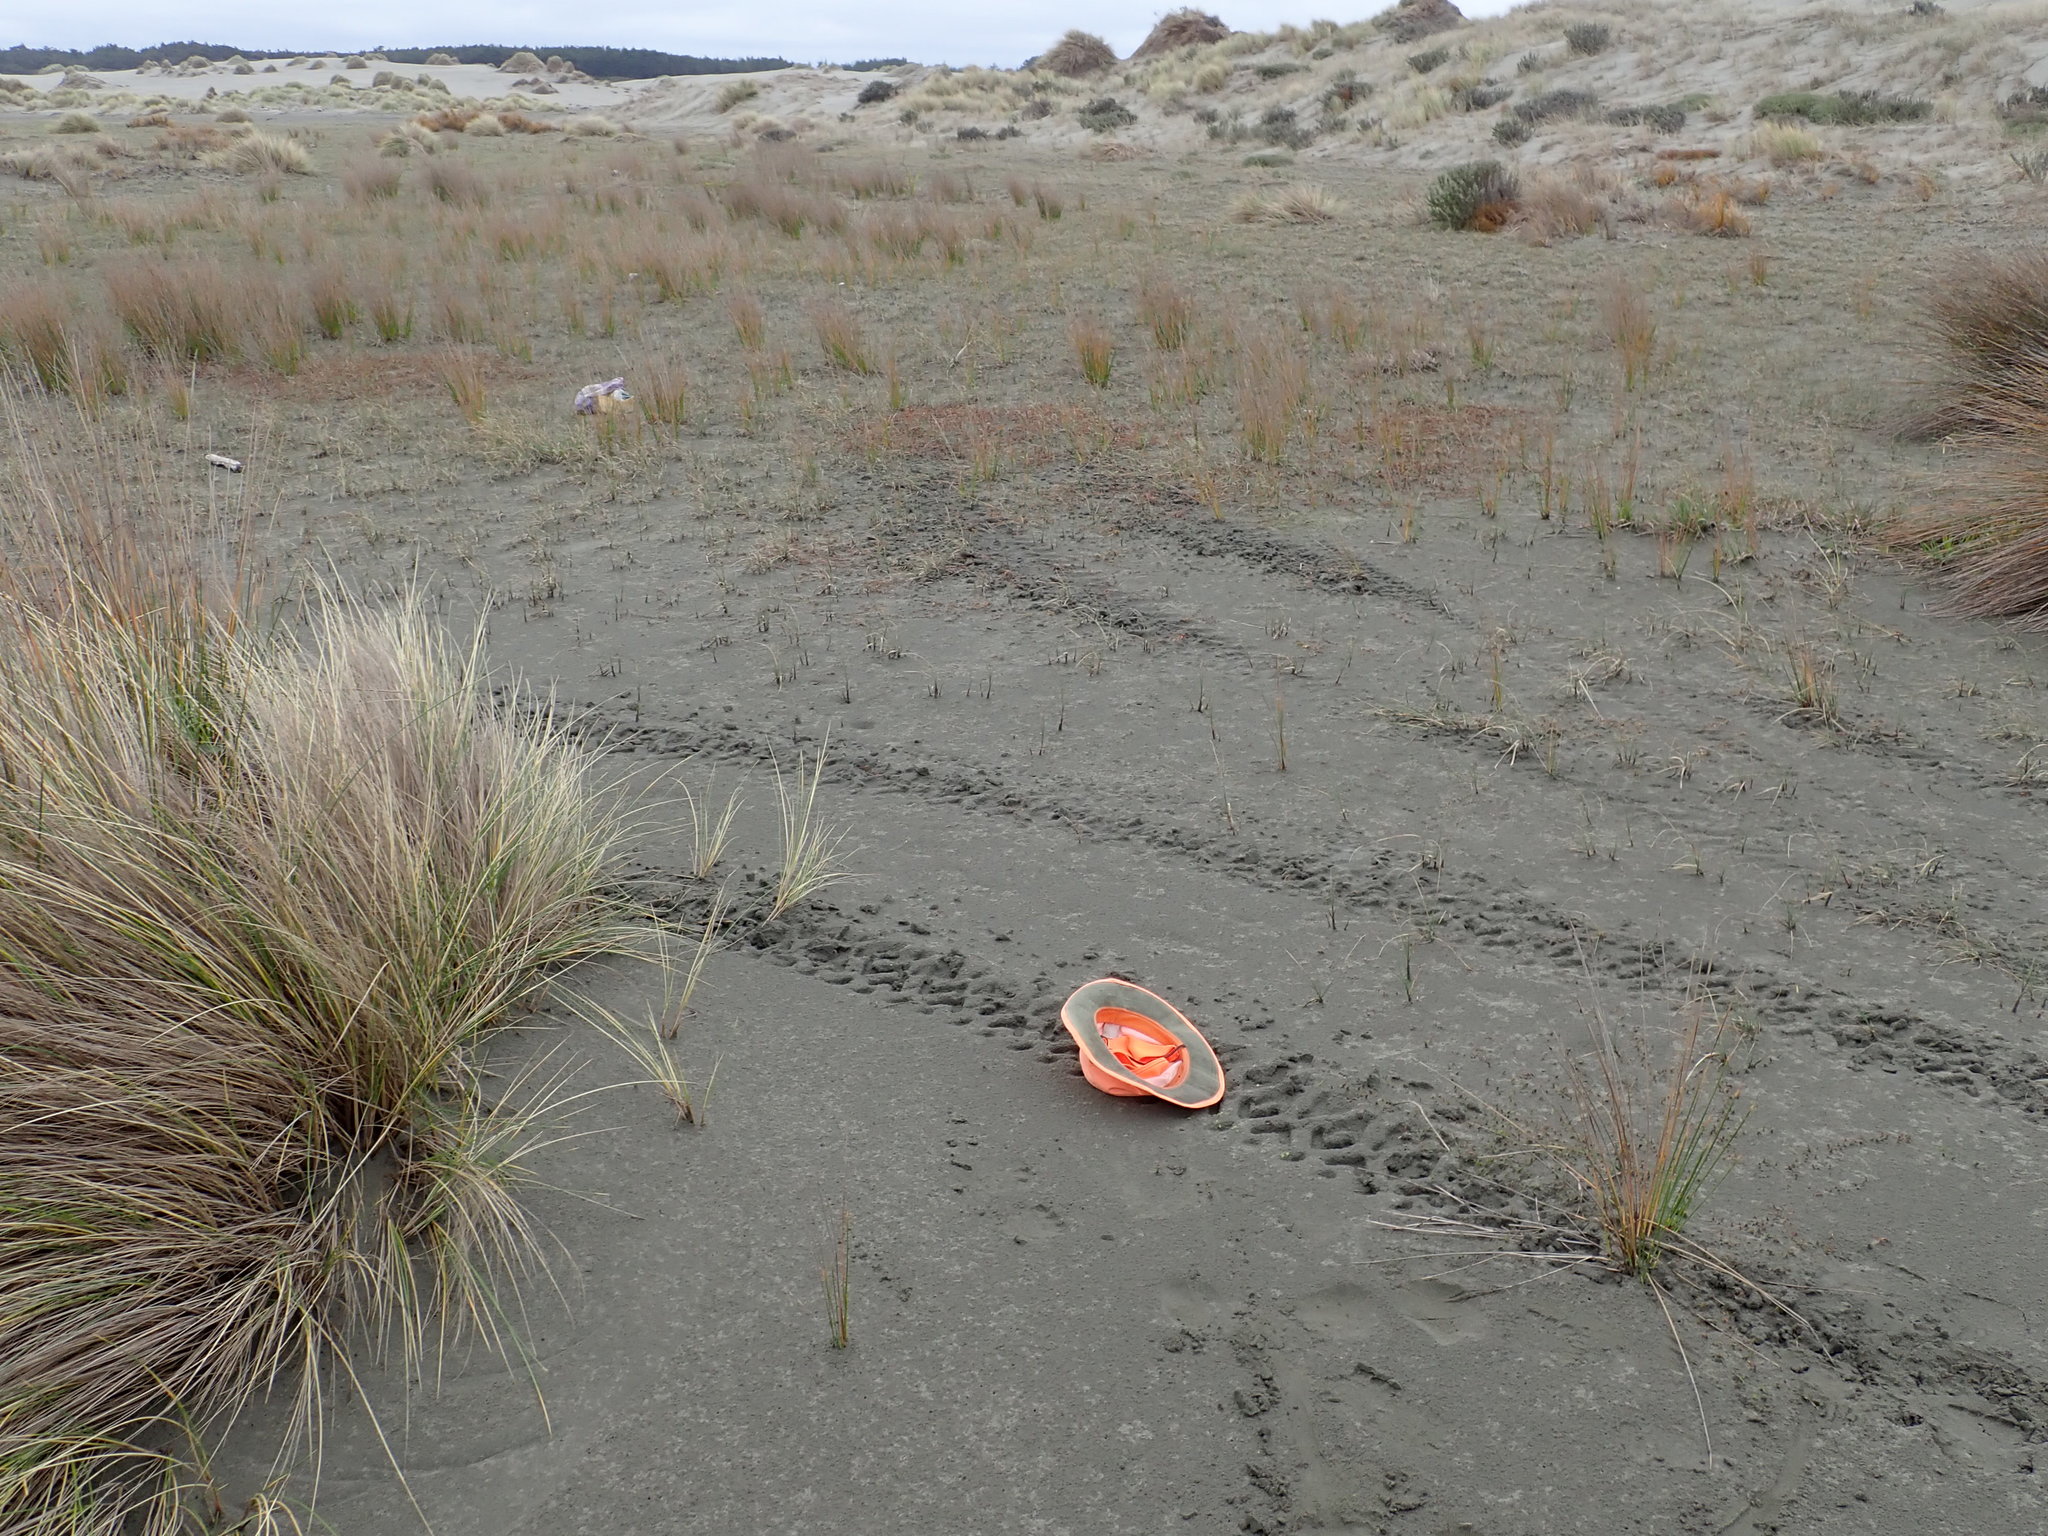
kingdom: Plantae
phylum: Tracheophyta
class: Magnoliopsida
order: Ranunculales
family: Ranunculaceae
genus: Ranunculus
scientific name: Ranunculus acaulis
